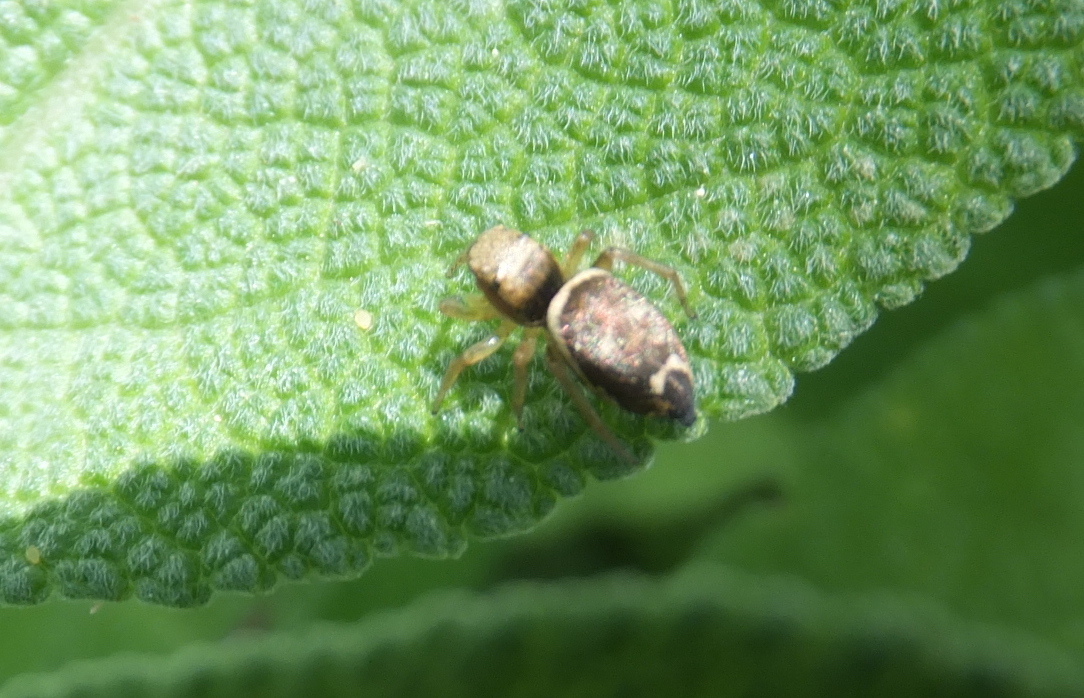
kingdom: Animalia
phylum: Arthropoda
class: Arachnida
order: Araneae
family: Salticidae
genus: Heliophanus
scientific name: Heliophanus tribulosus
